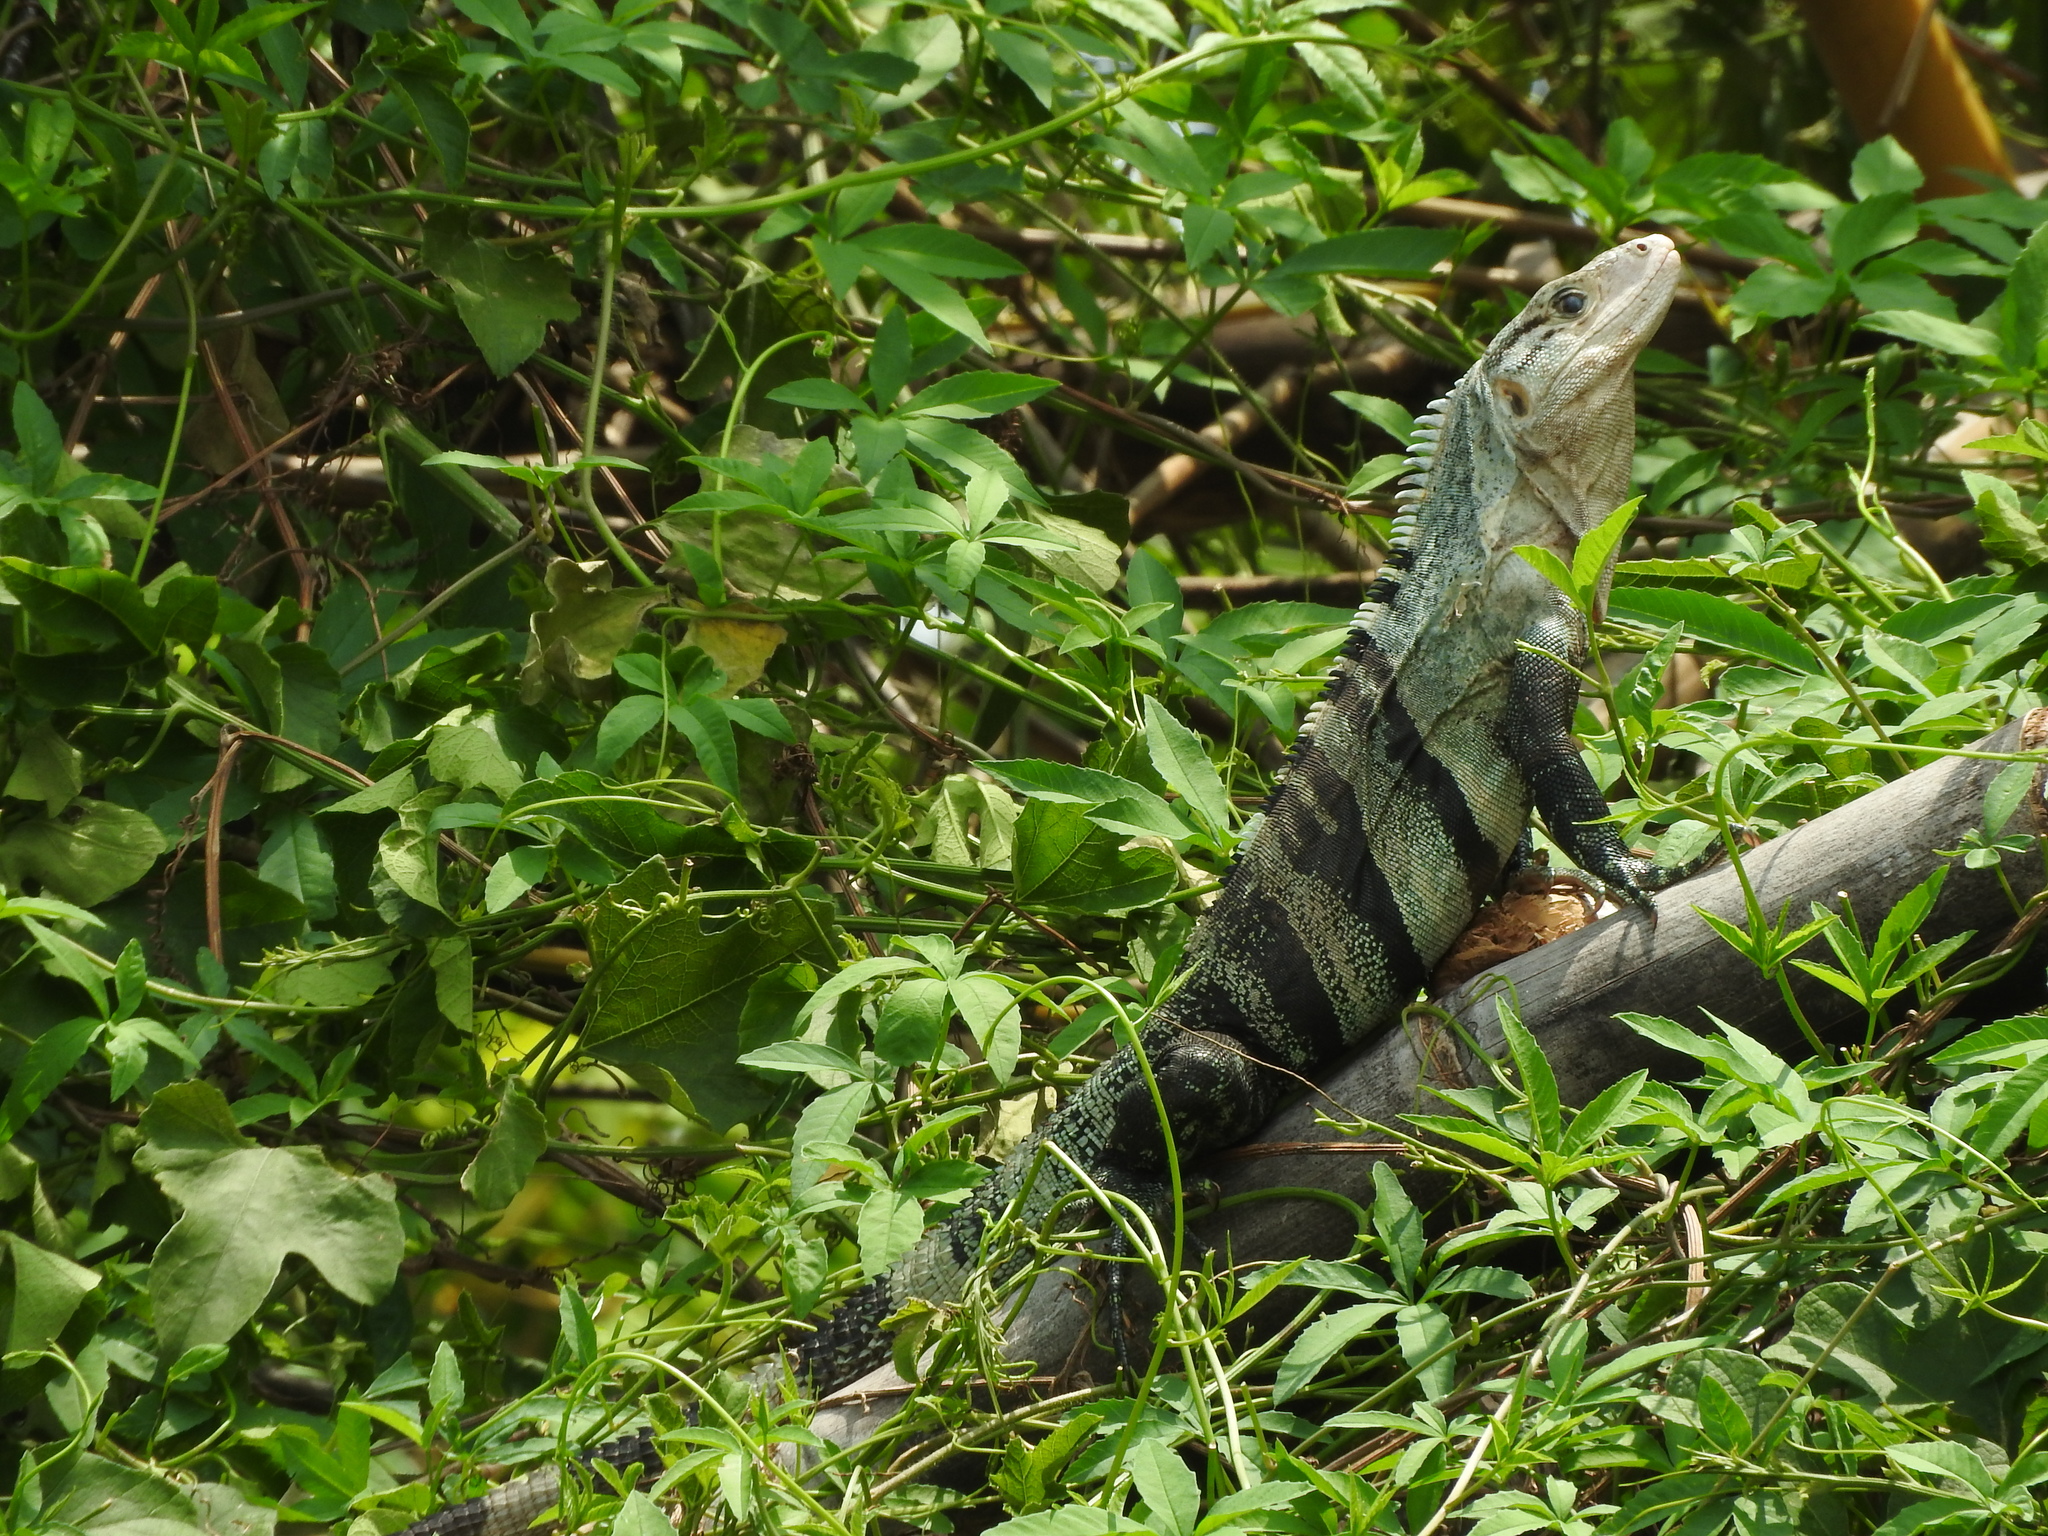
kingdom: Animalia
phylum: Chordata
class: Squamata
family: Iguanidae
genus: Ctenosaura
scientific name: Ctenosaura similis
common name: Black spiny-tailed iguana
